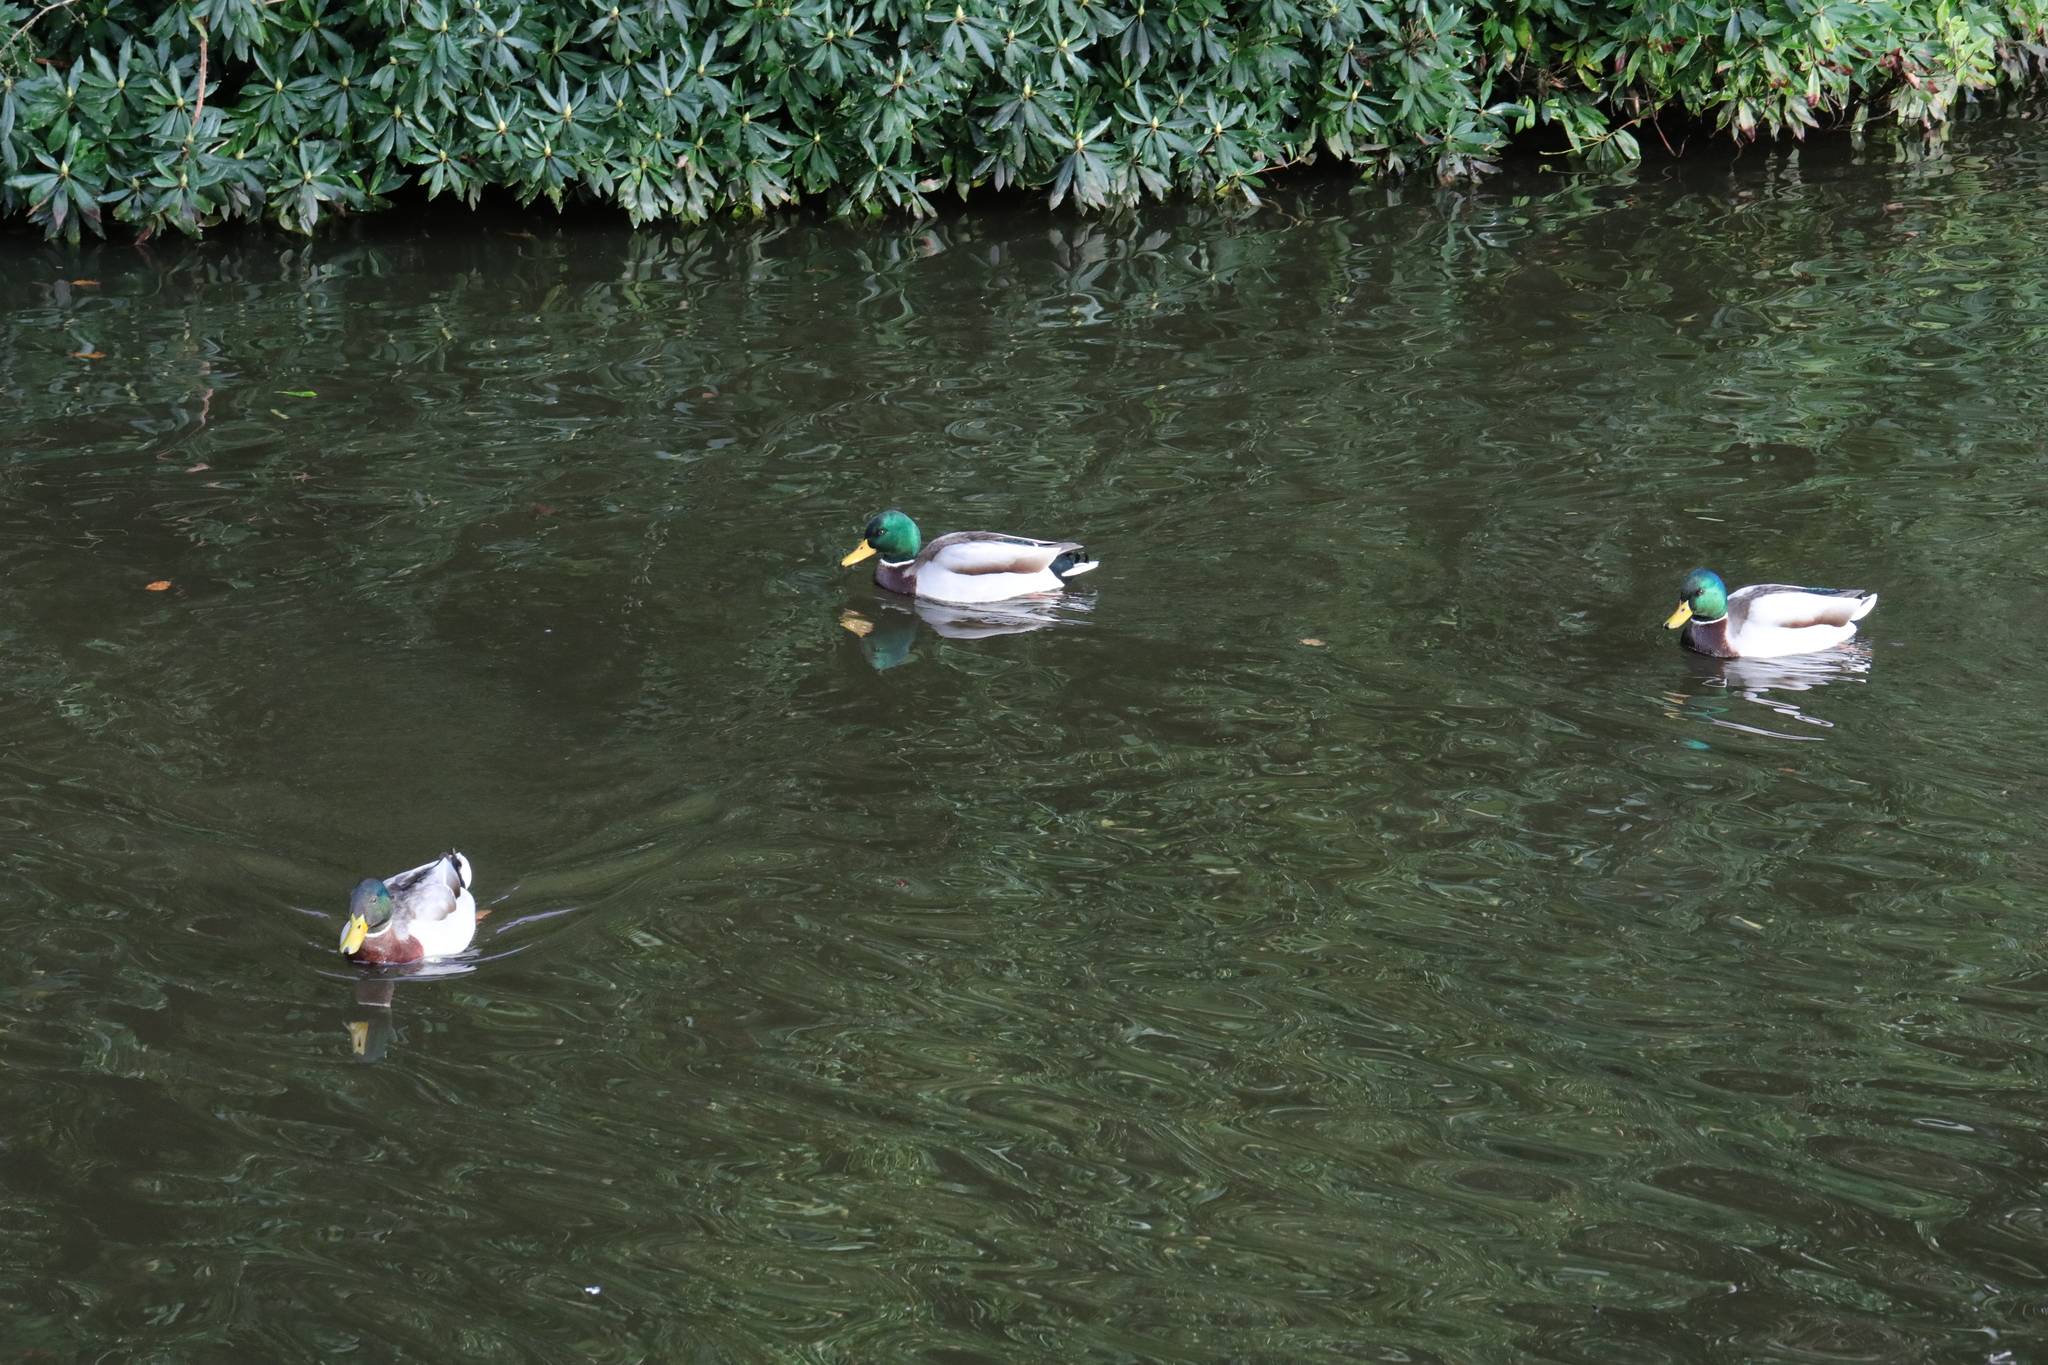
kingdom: Animalia
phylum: Chordata
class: Aves
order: Anseriformes
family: Anatidae
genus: Anas
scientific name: Anas platyrhynchos
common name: Mallard
